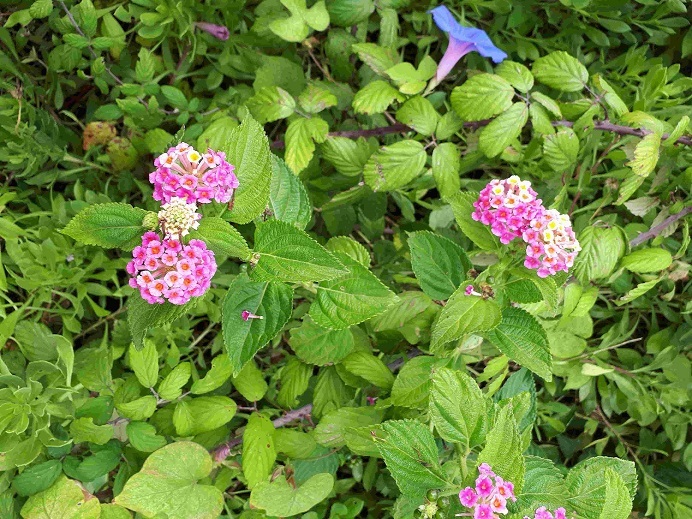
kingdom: Plantae
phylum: Tracheophyta
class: Magnoliopsida
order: Lamiales
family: Verbenaceae
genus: Lantana
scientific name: Lantana camara
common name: Lantana
